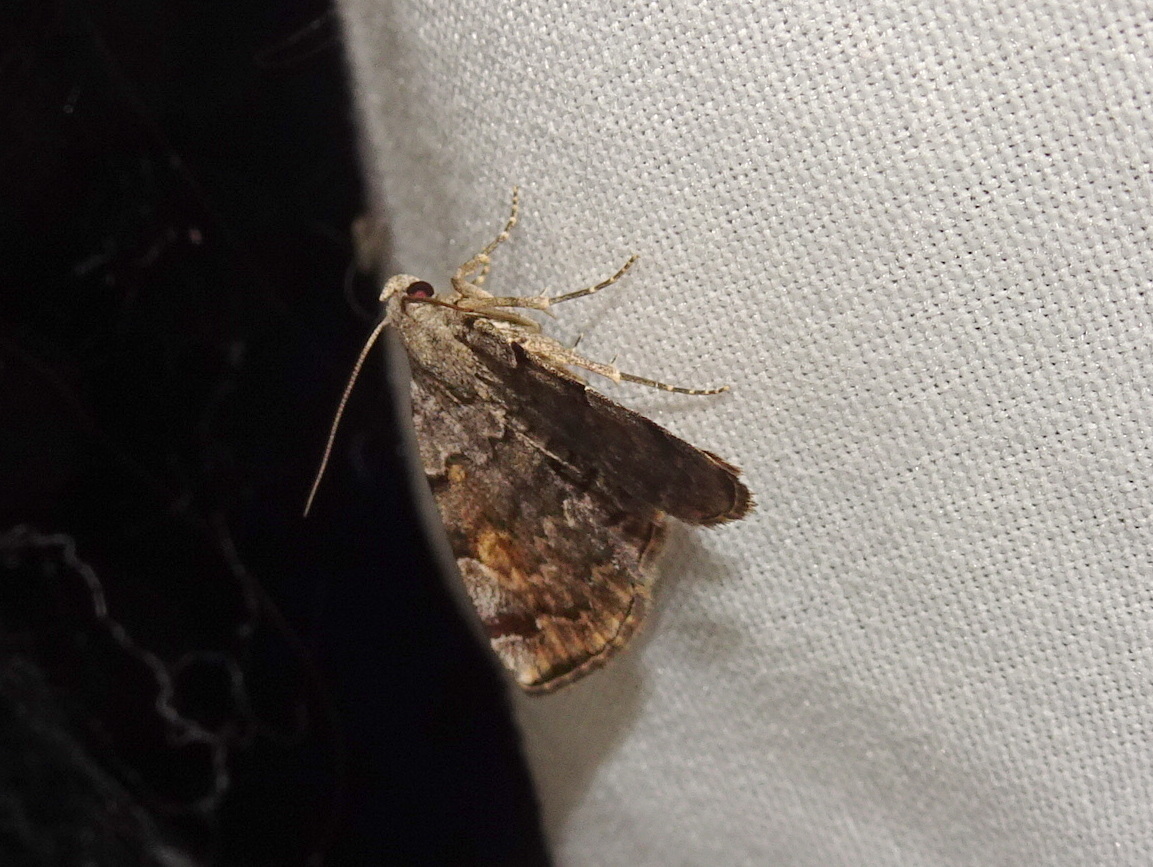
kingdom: Animalia
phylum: Arthropoda
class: Insecta
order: Lepidoptera
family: Erebidae
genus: Idia
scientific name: Idia americalis
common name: American idia moth
